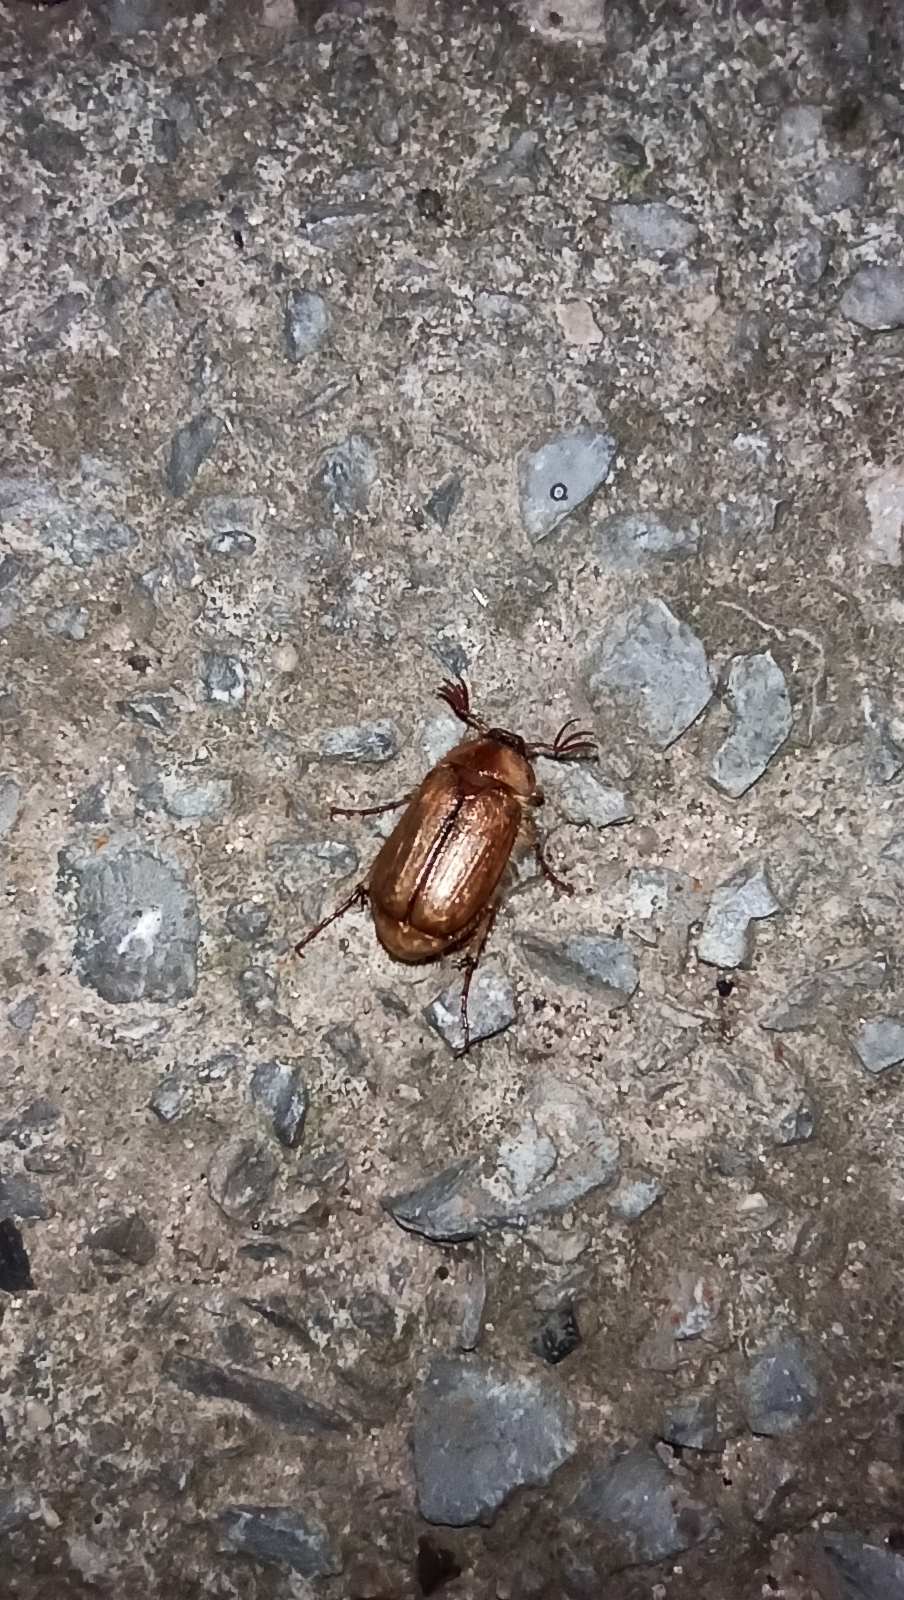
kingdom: Animalia
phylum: Arthropoda
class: Insecta
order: Coleoptera
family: Scarabaeidae
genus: Monotropus
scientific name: Monotropus nordmanni
